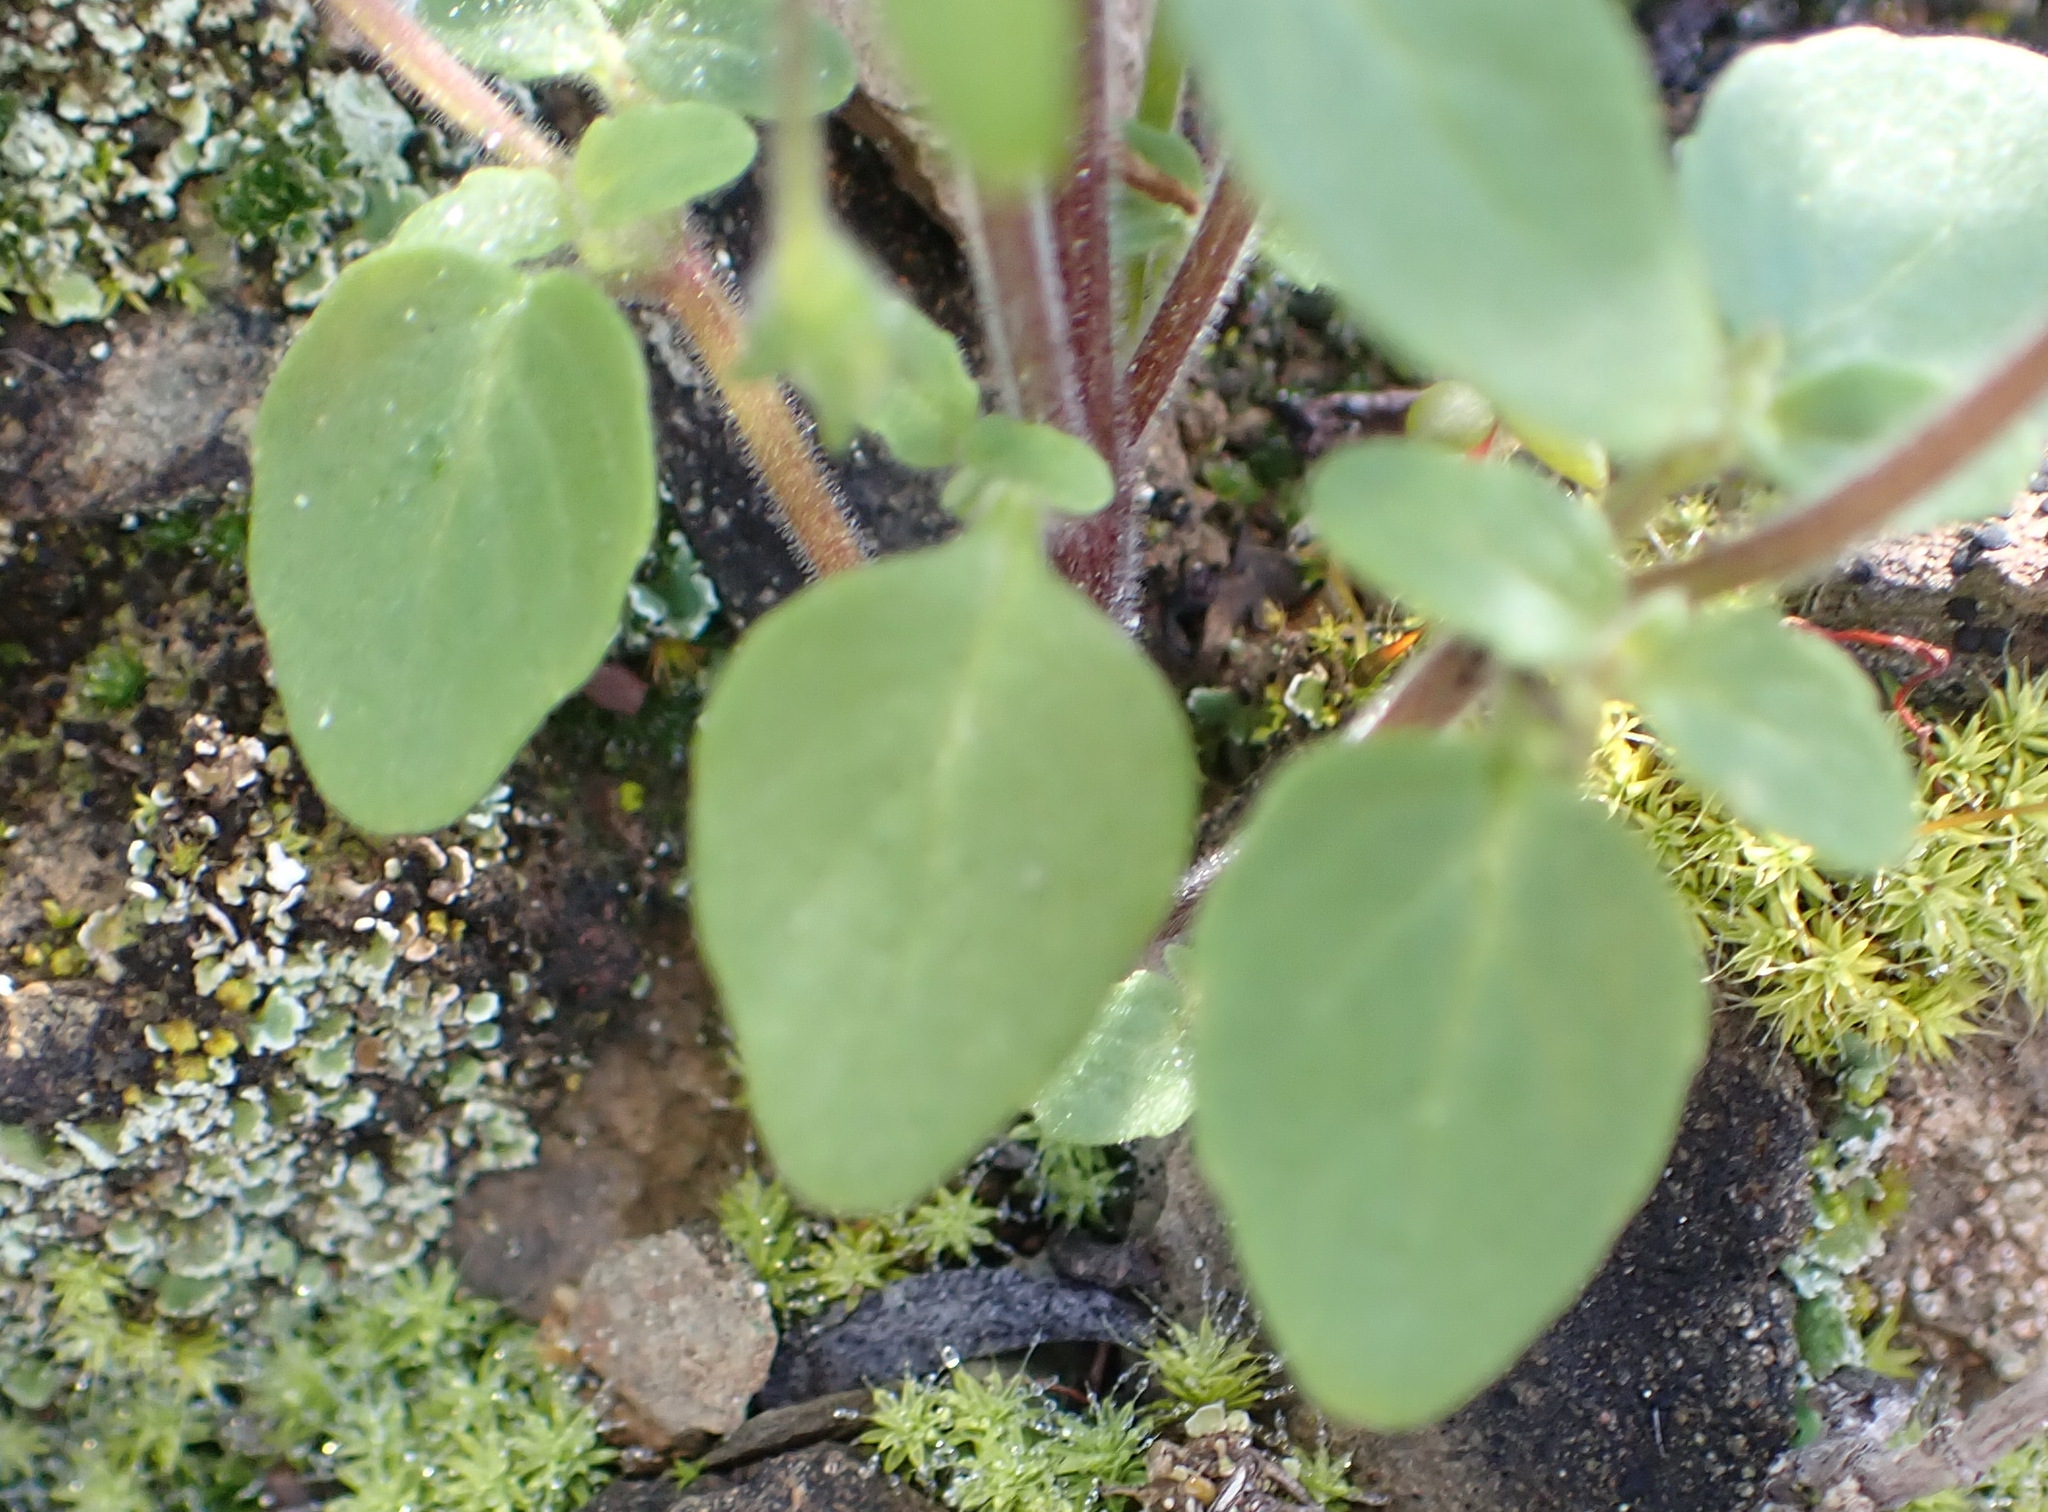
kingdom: Plantae
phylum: Tracheophyta
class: Magnoliopsida
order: Lamiales
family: Scrophulariaceae
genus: Hemimeris
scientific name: Hemimeris gracilis
